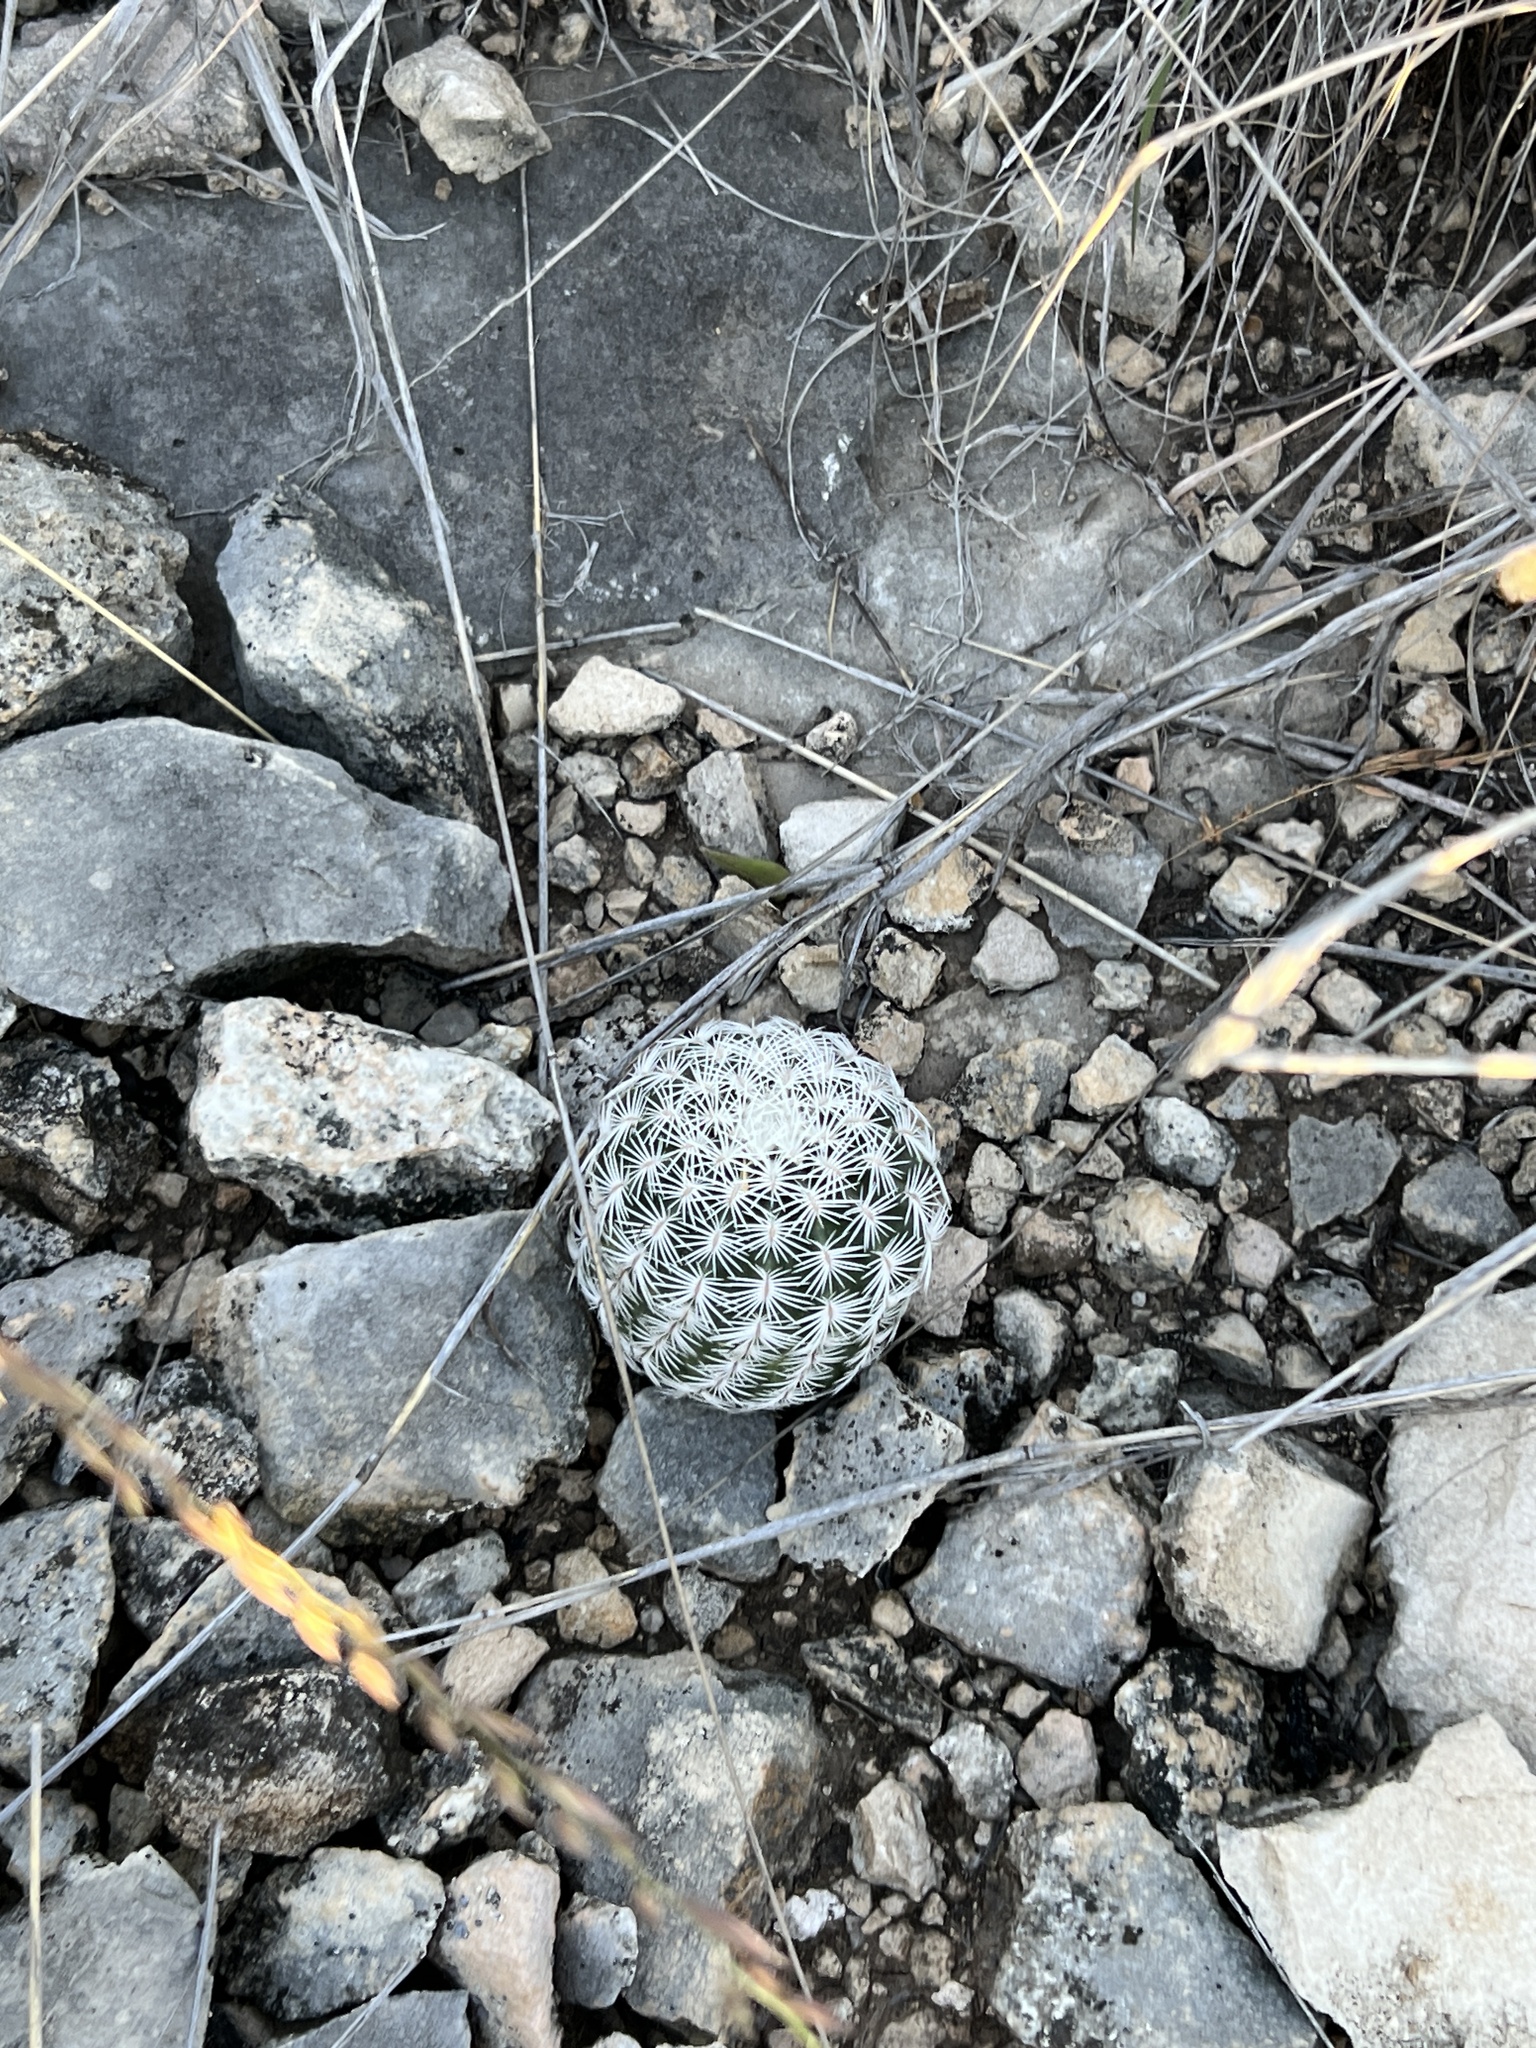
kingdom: Plantae
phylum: Tracheophyta
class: Magnoliopsida
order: Caryophyllales
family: Cactaceae
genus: Echinocereus
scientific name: Echinocereus reichenbachii
